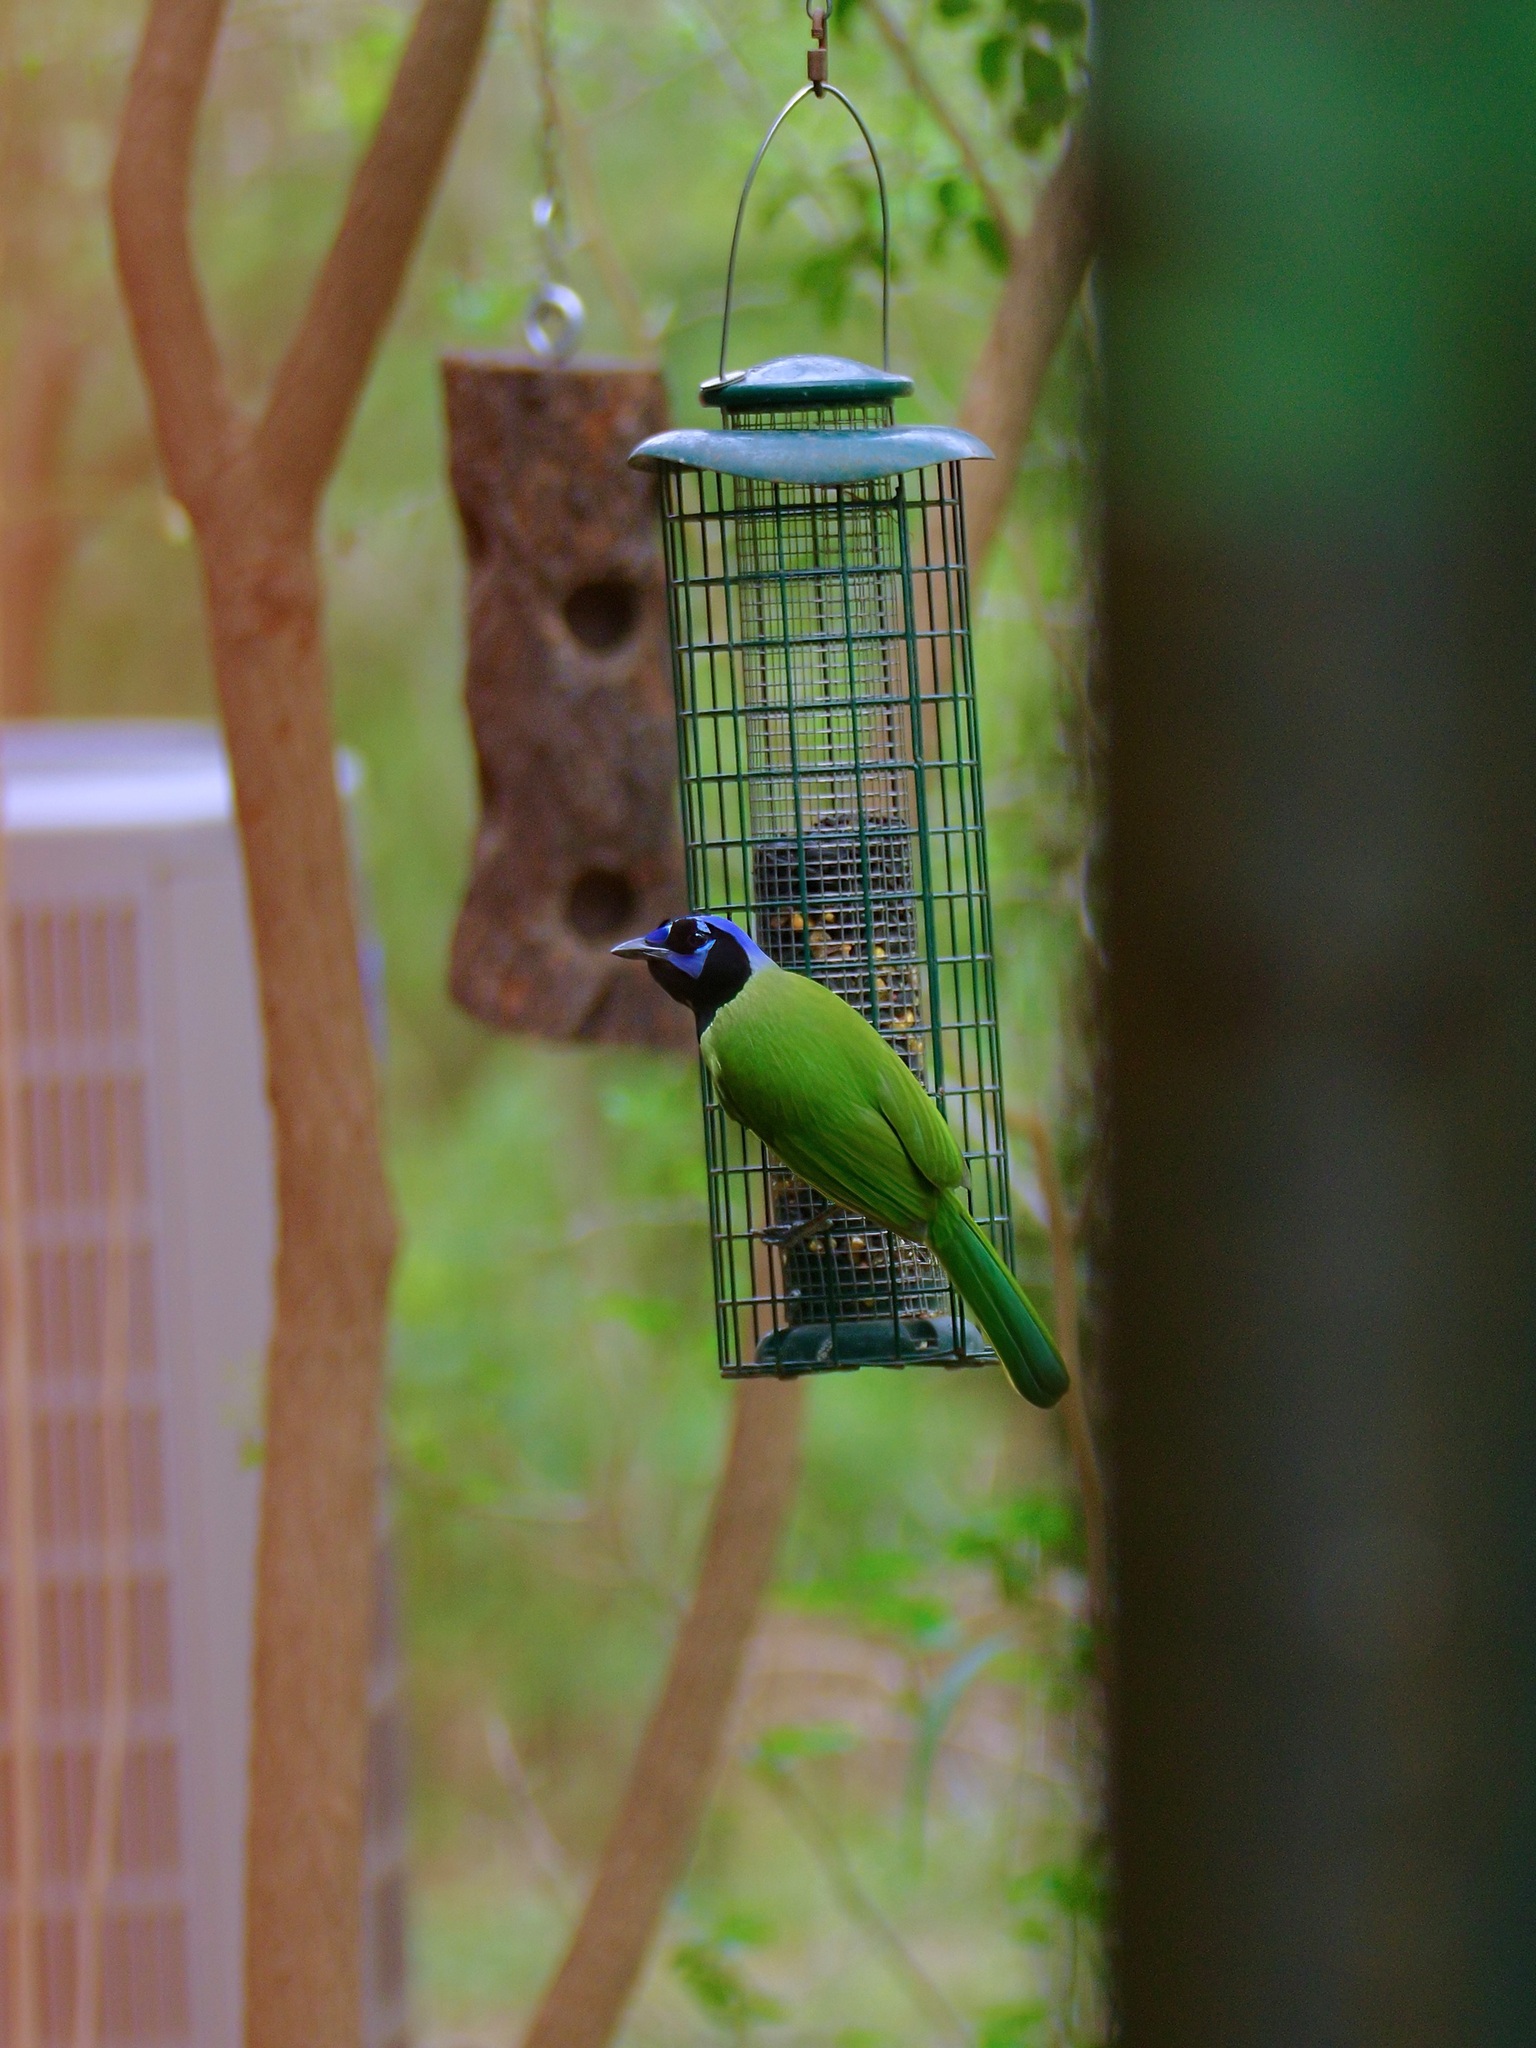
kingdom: Animalia
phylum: Chordata
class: Aves
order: Passeriformes
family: Corvidae
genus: Cyanocorax
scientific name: Cyanocorax yncas
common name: Green jay
